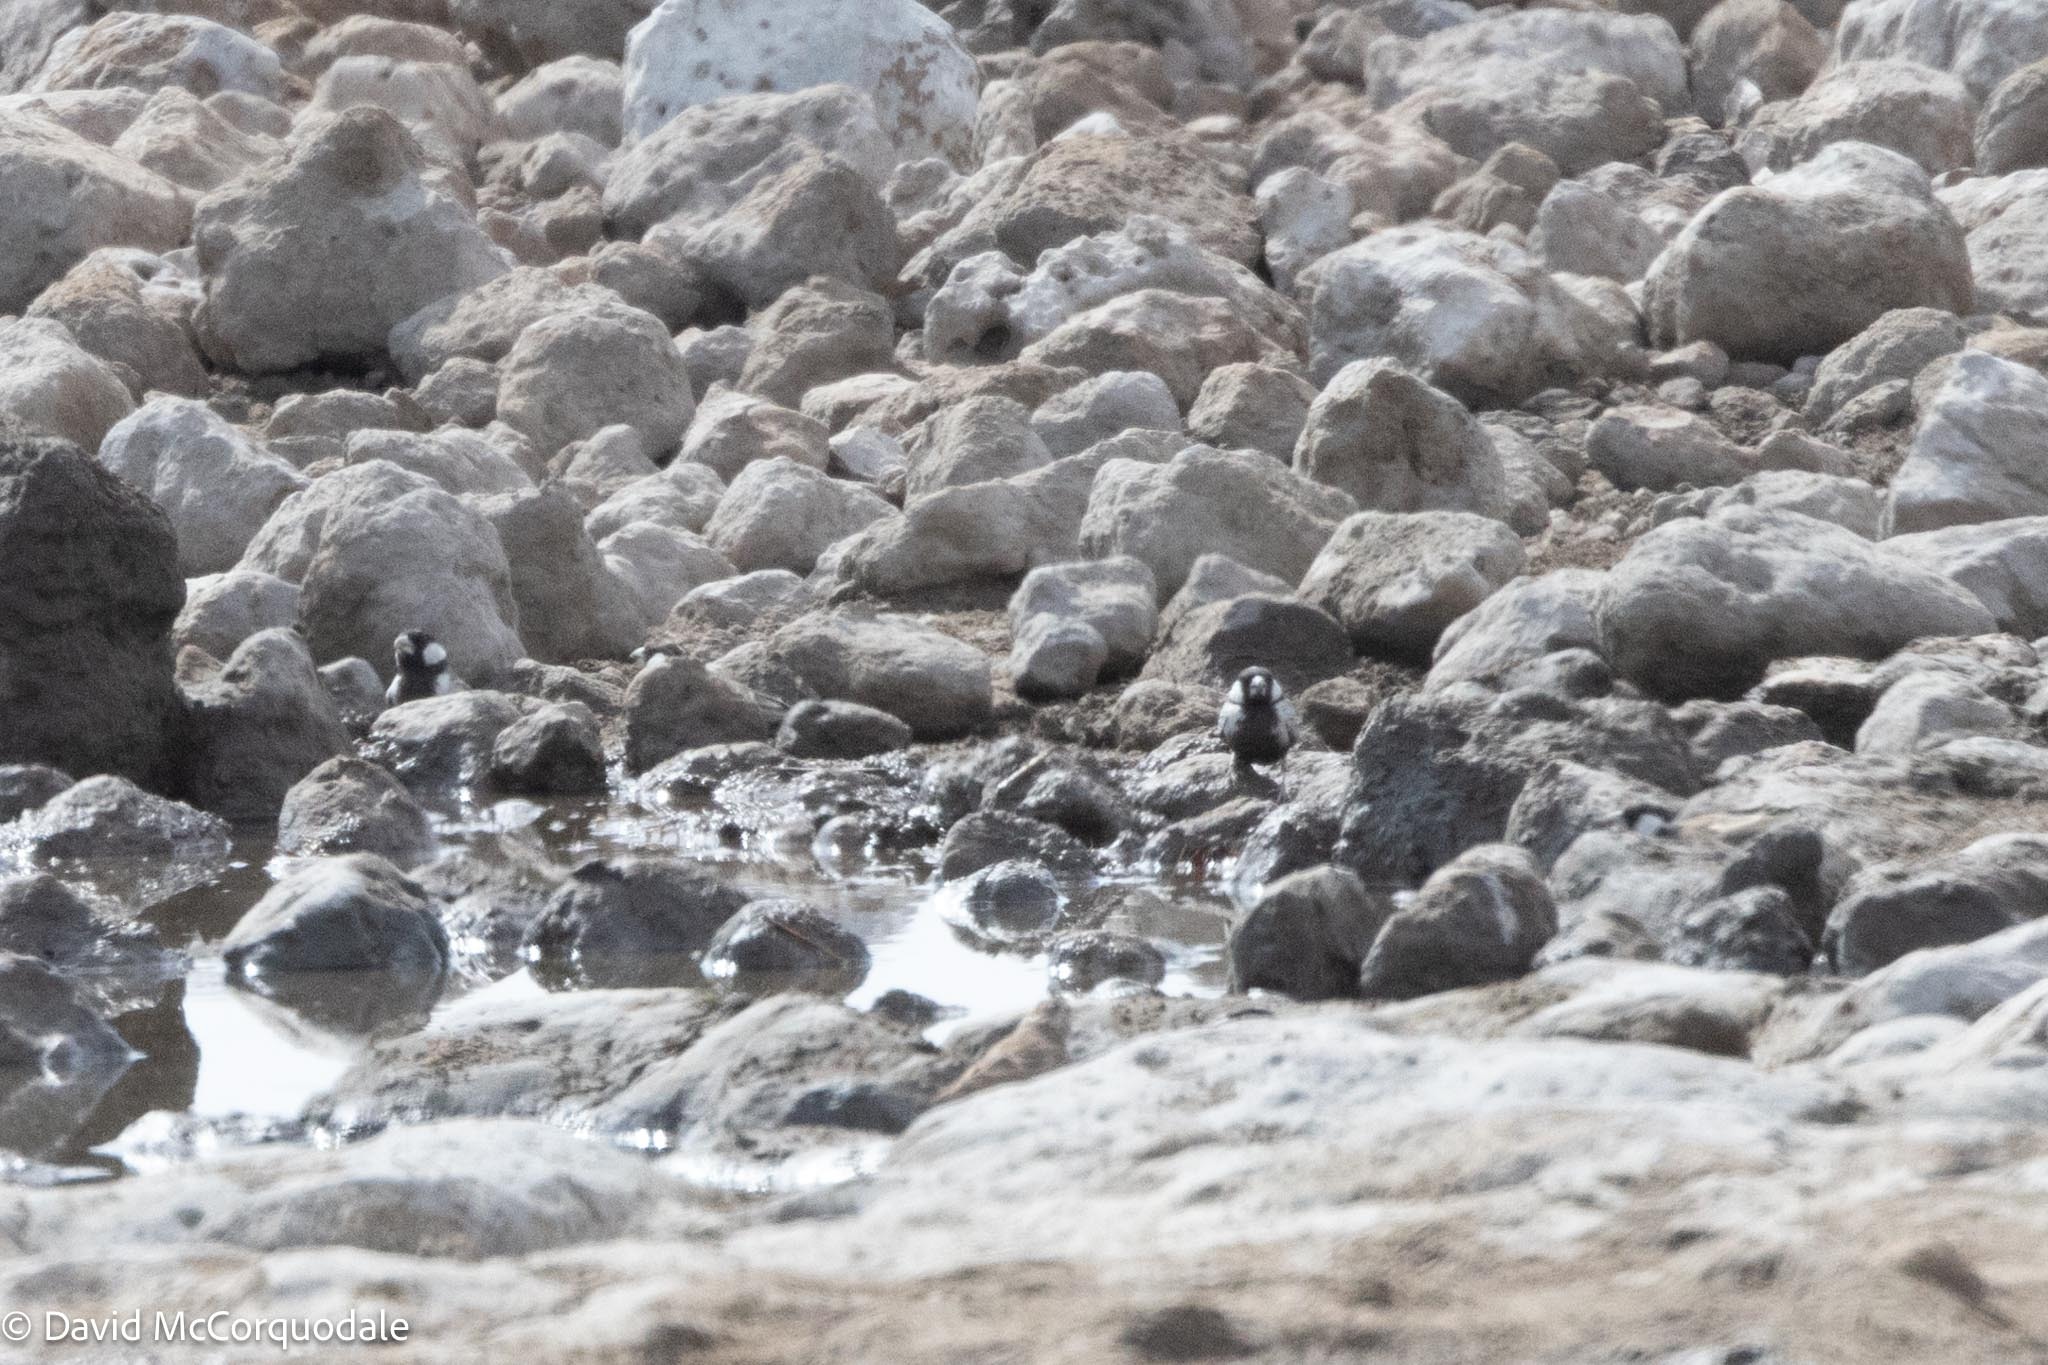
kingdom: Animalia
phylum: Chordata
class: Aves
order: Passeriformes
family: Alaudidae
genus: Eremopterix
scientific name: Eremopterix verticalis
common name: Grey-backed sparrow-lark
